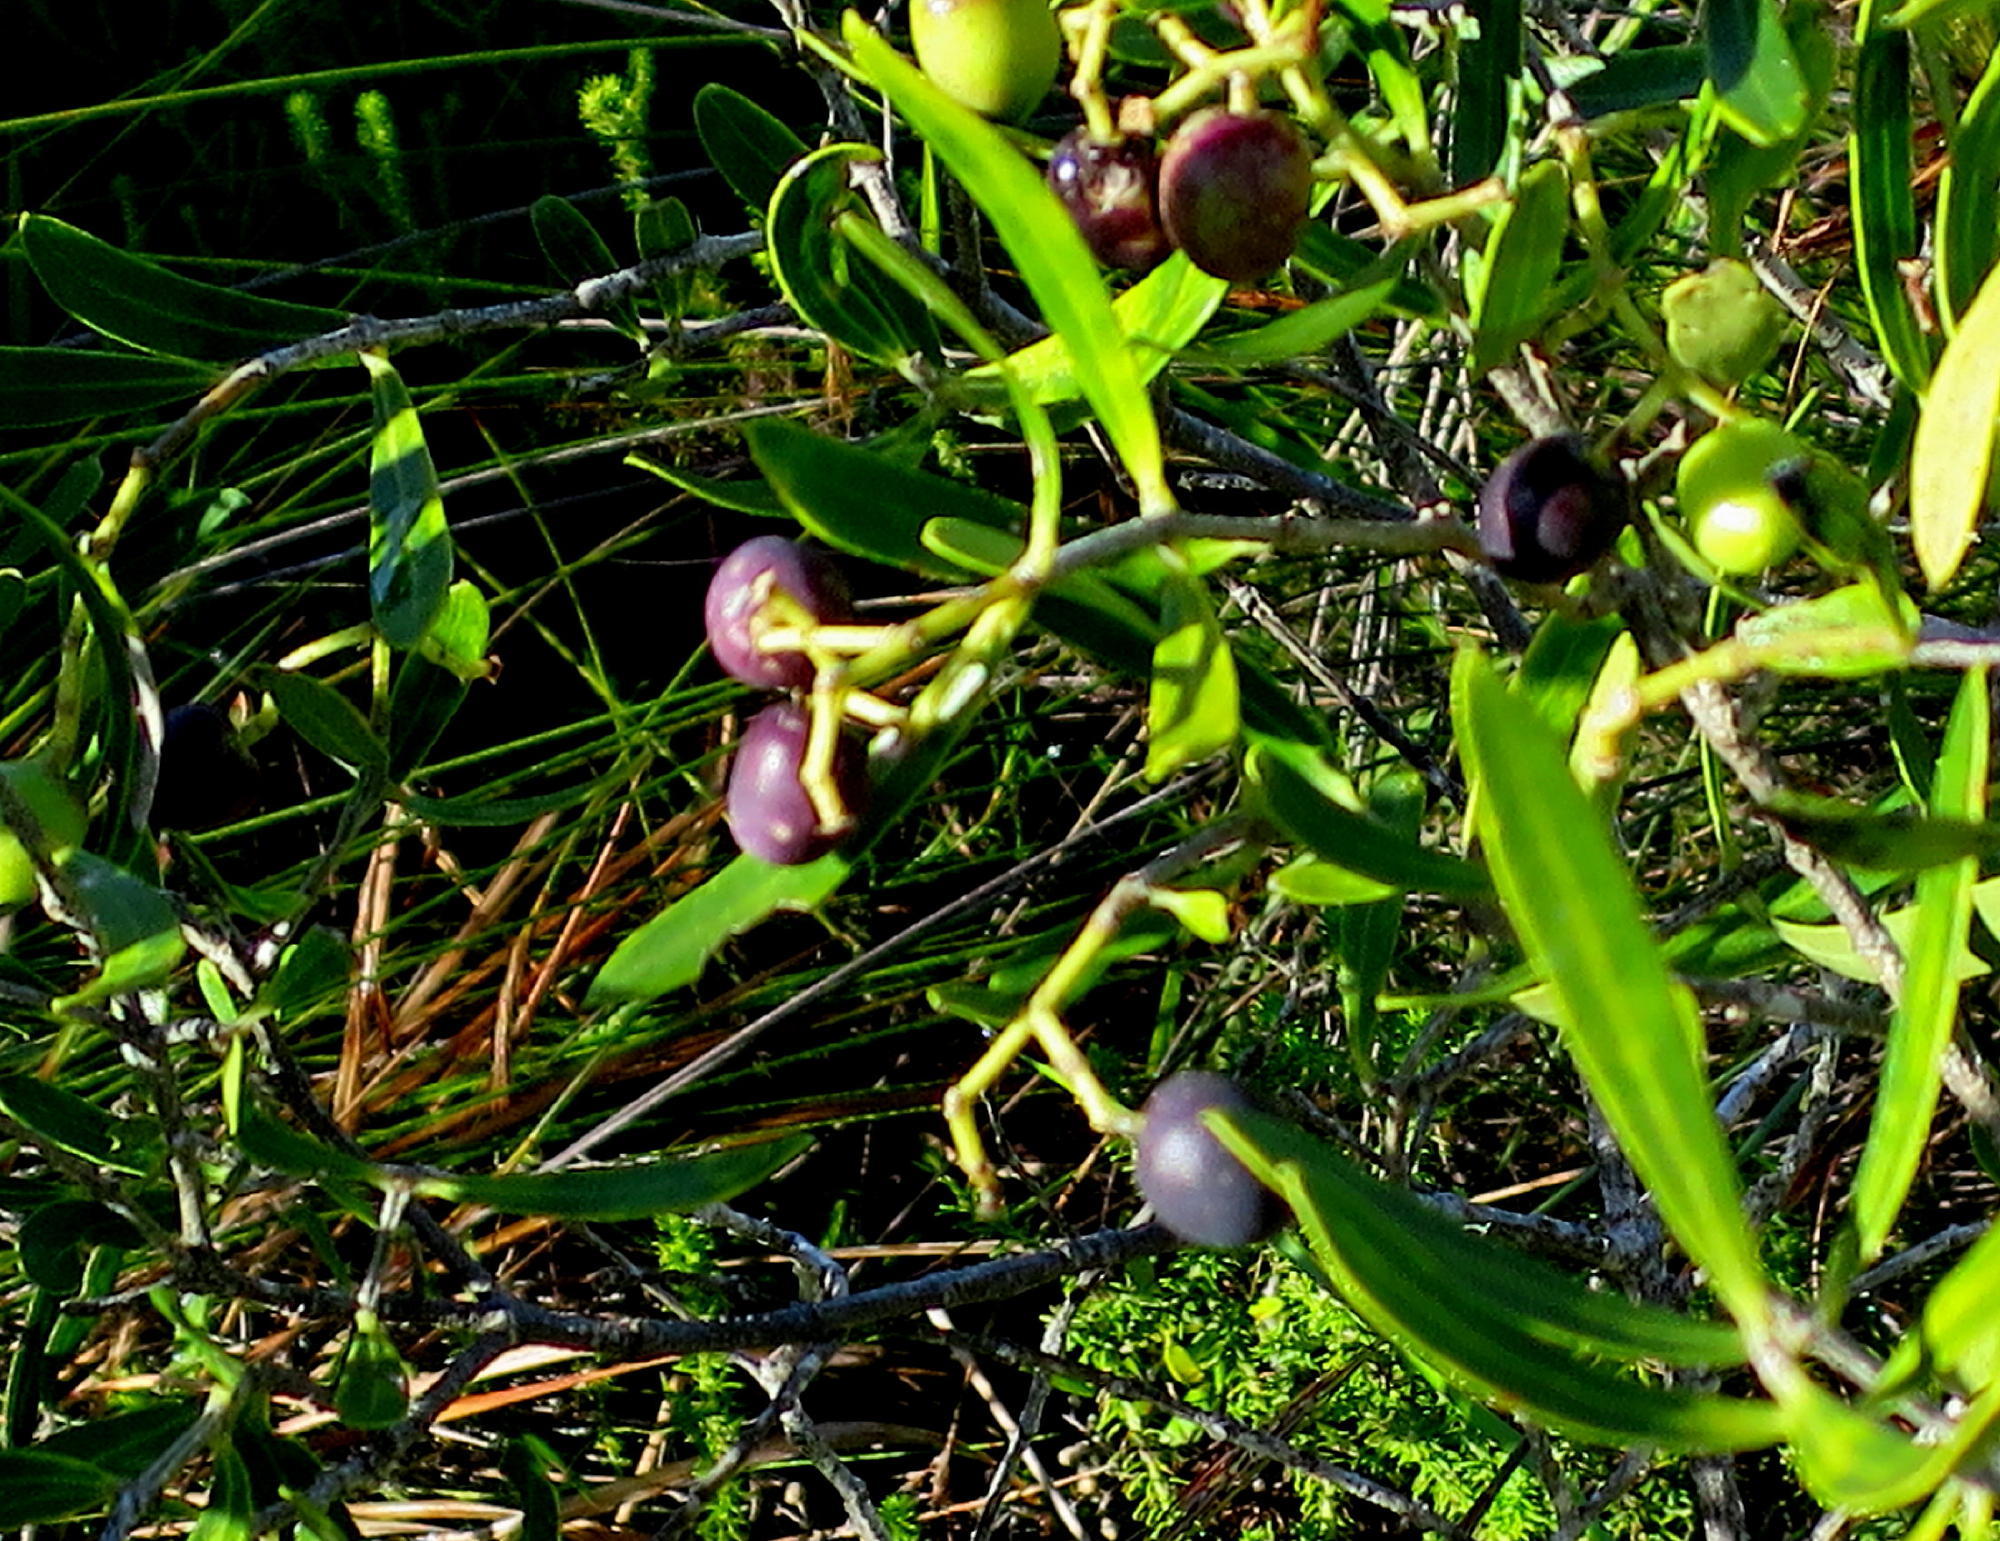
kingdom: Plantae
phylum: Tracheophyta
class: Magnoliopsida
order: Lamiales
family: Oleaceae
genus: Olea
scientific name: Olea exasperata
